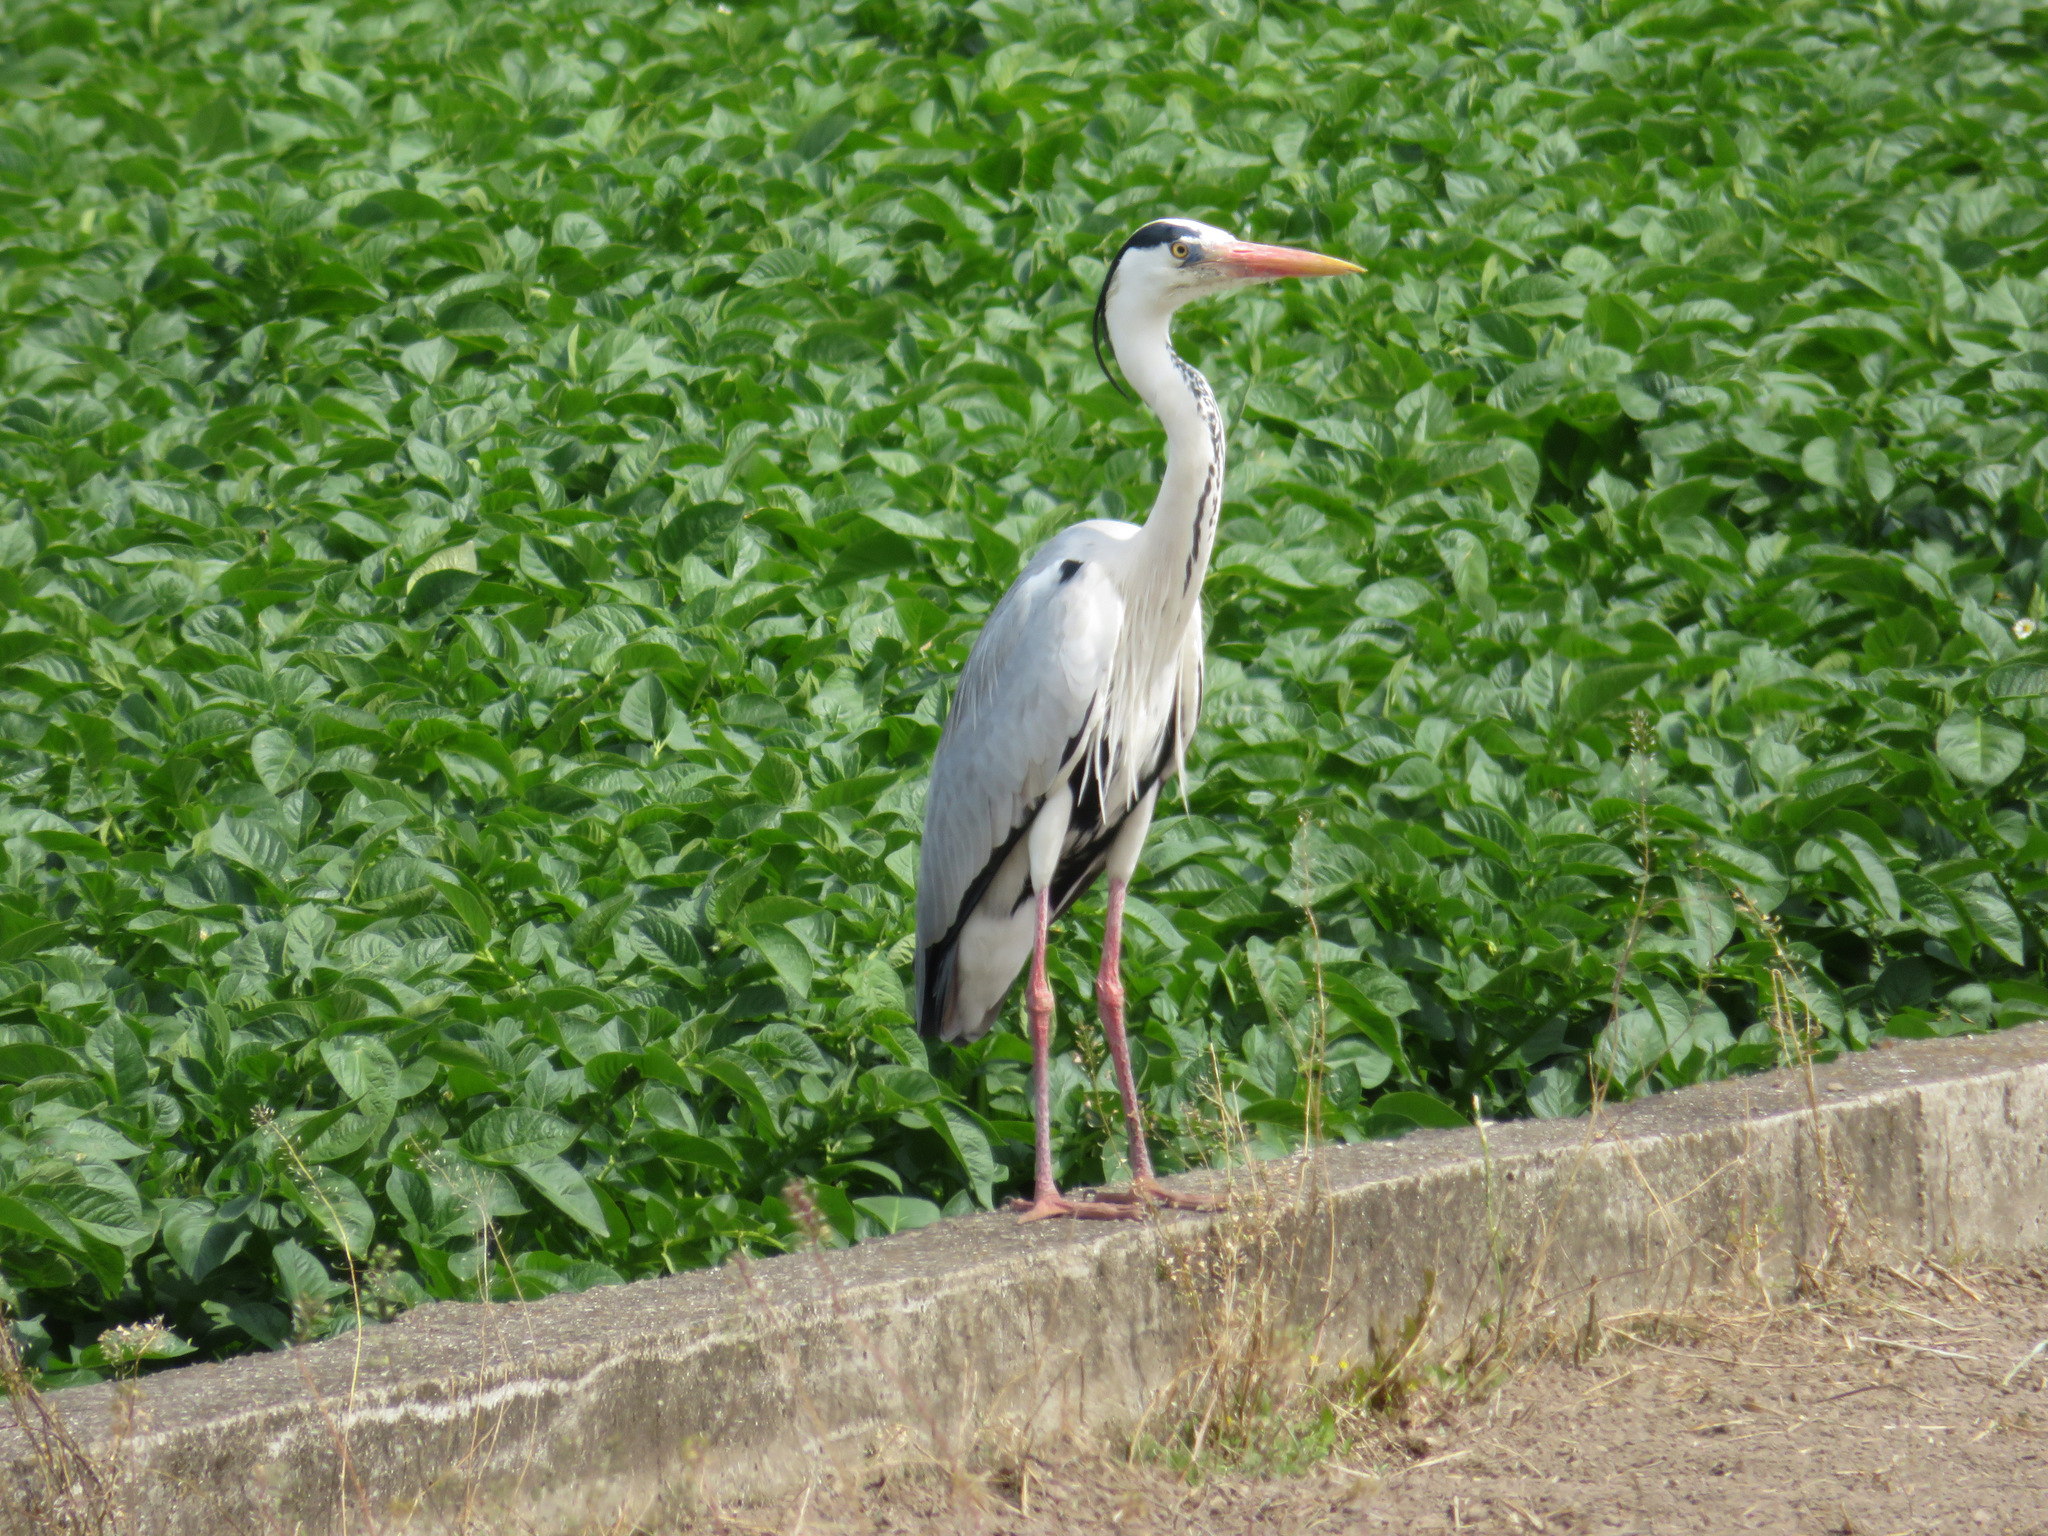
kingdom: Animalia
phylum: Chordata
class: Aves
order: Pelecaniformes
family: Ardeidae
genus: Ardea
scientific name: Ardea cinerea
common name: Grey heron
